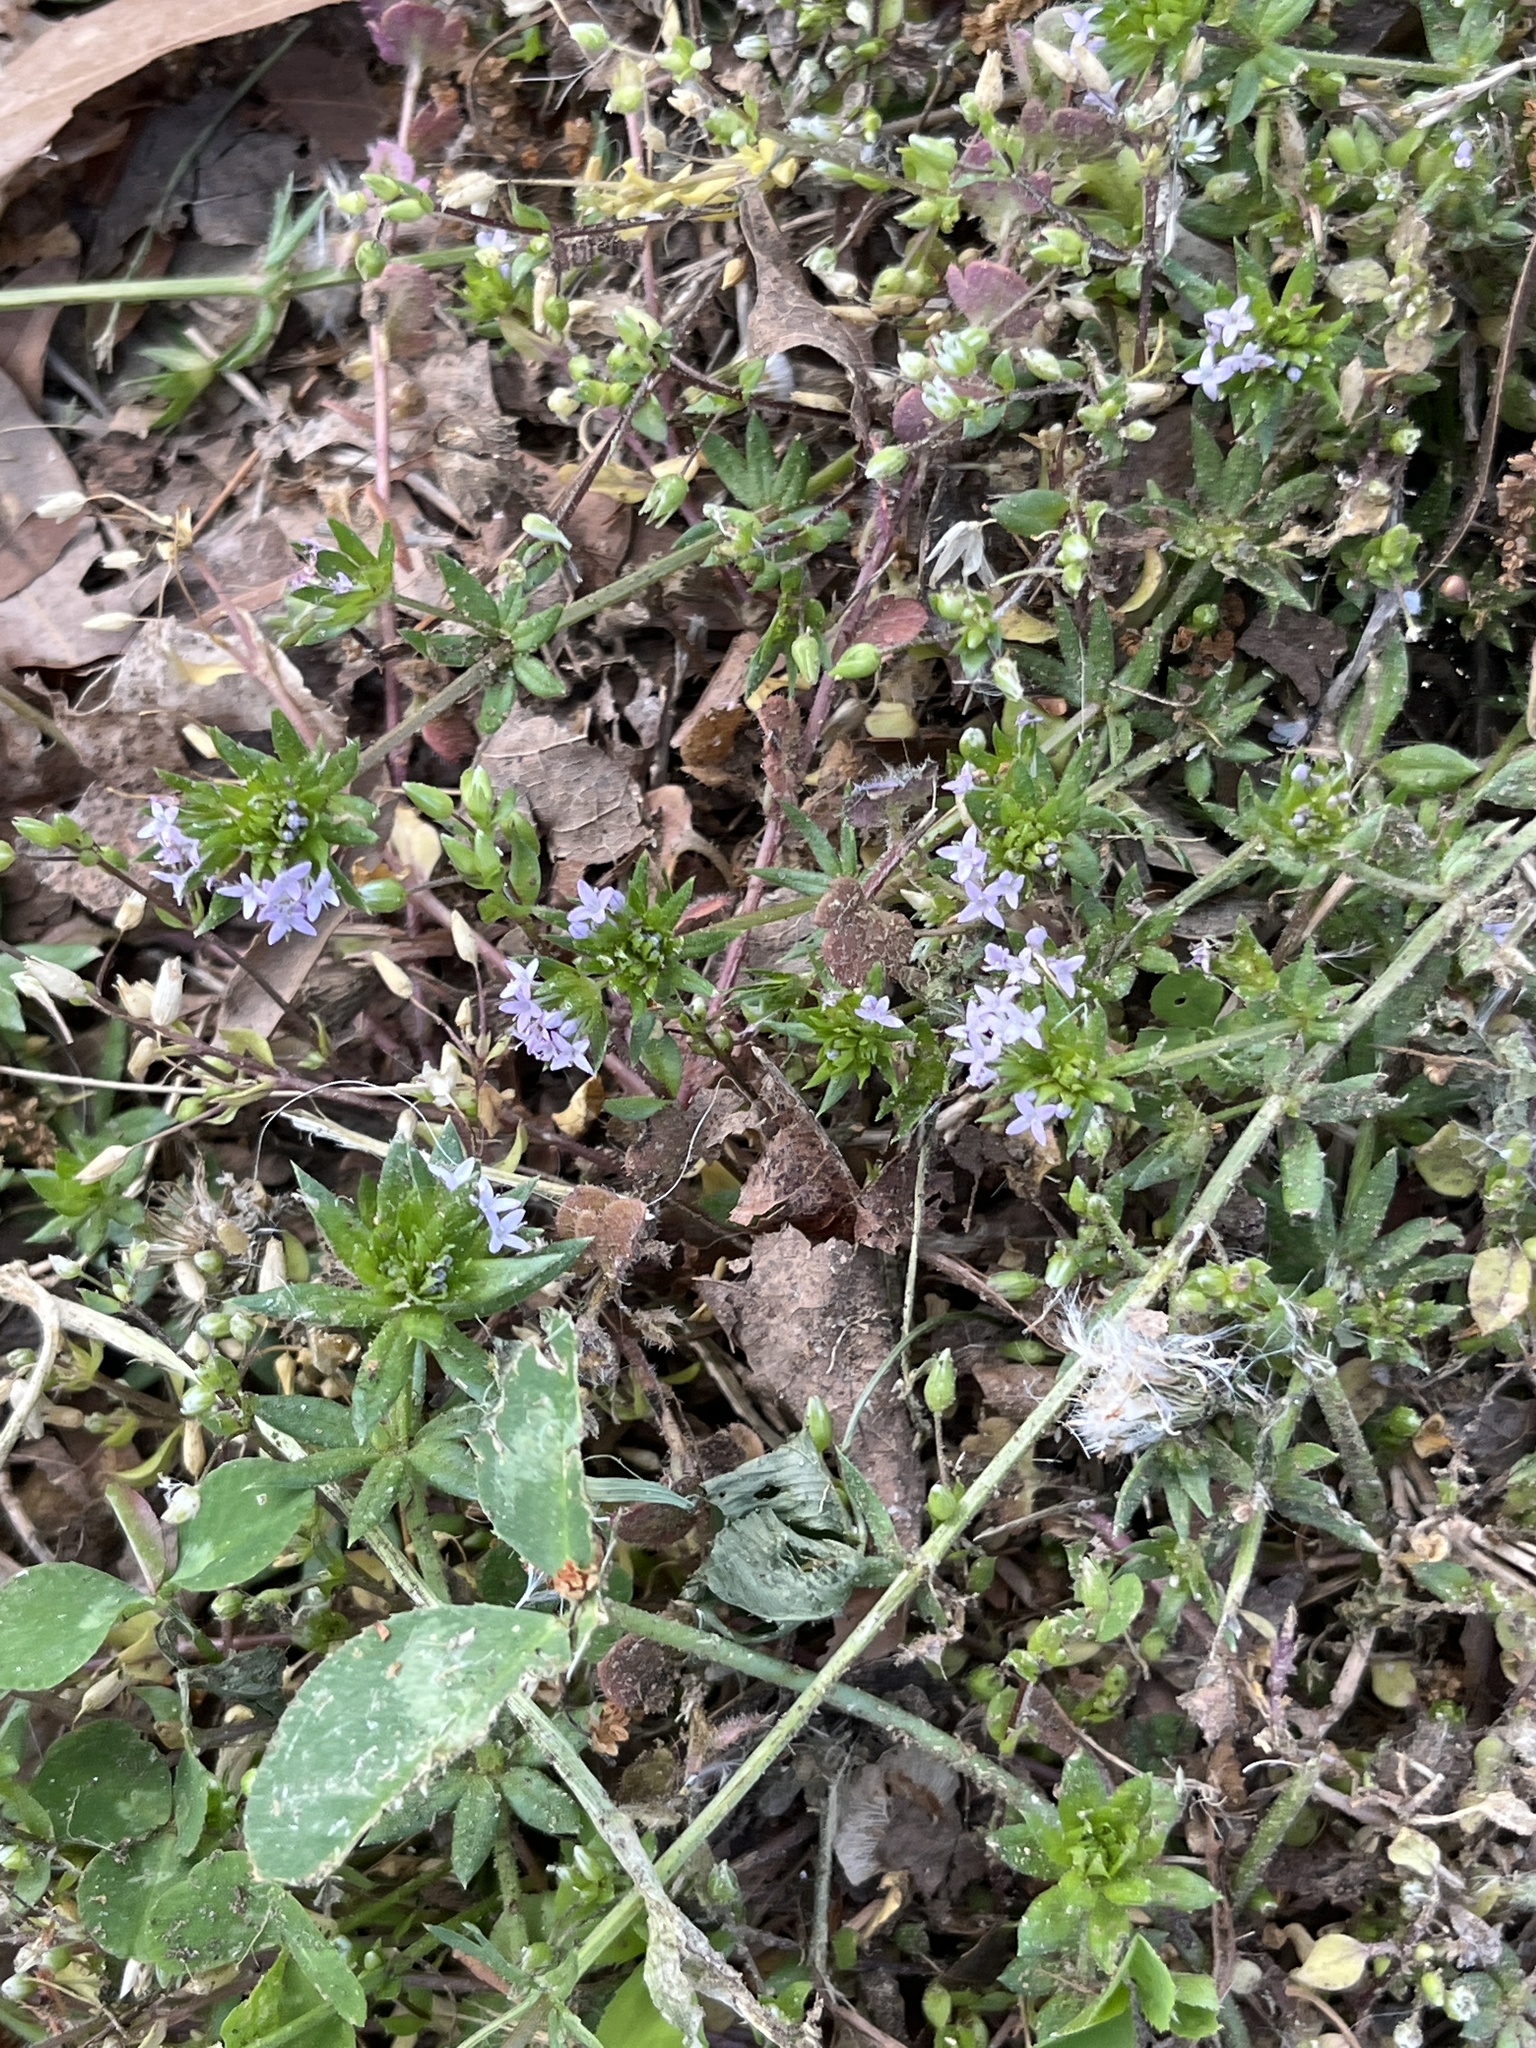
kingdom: Plantae
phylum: Tracheophyta
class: Magnoliopsida
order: Gentianales
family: Rubiaceae
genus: Sherardia
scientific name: Sherardia arvensis
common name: Field madder
